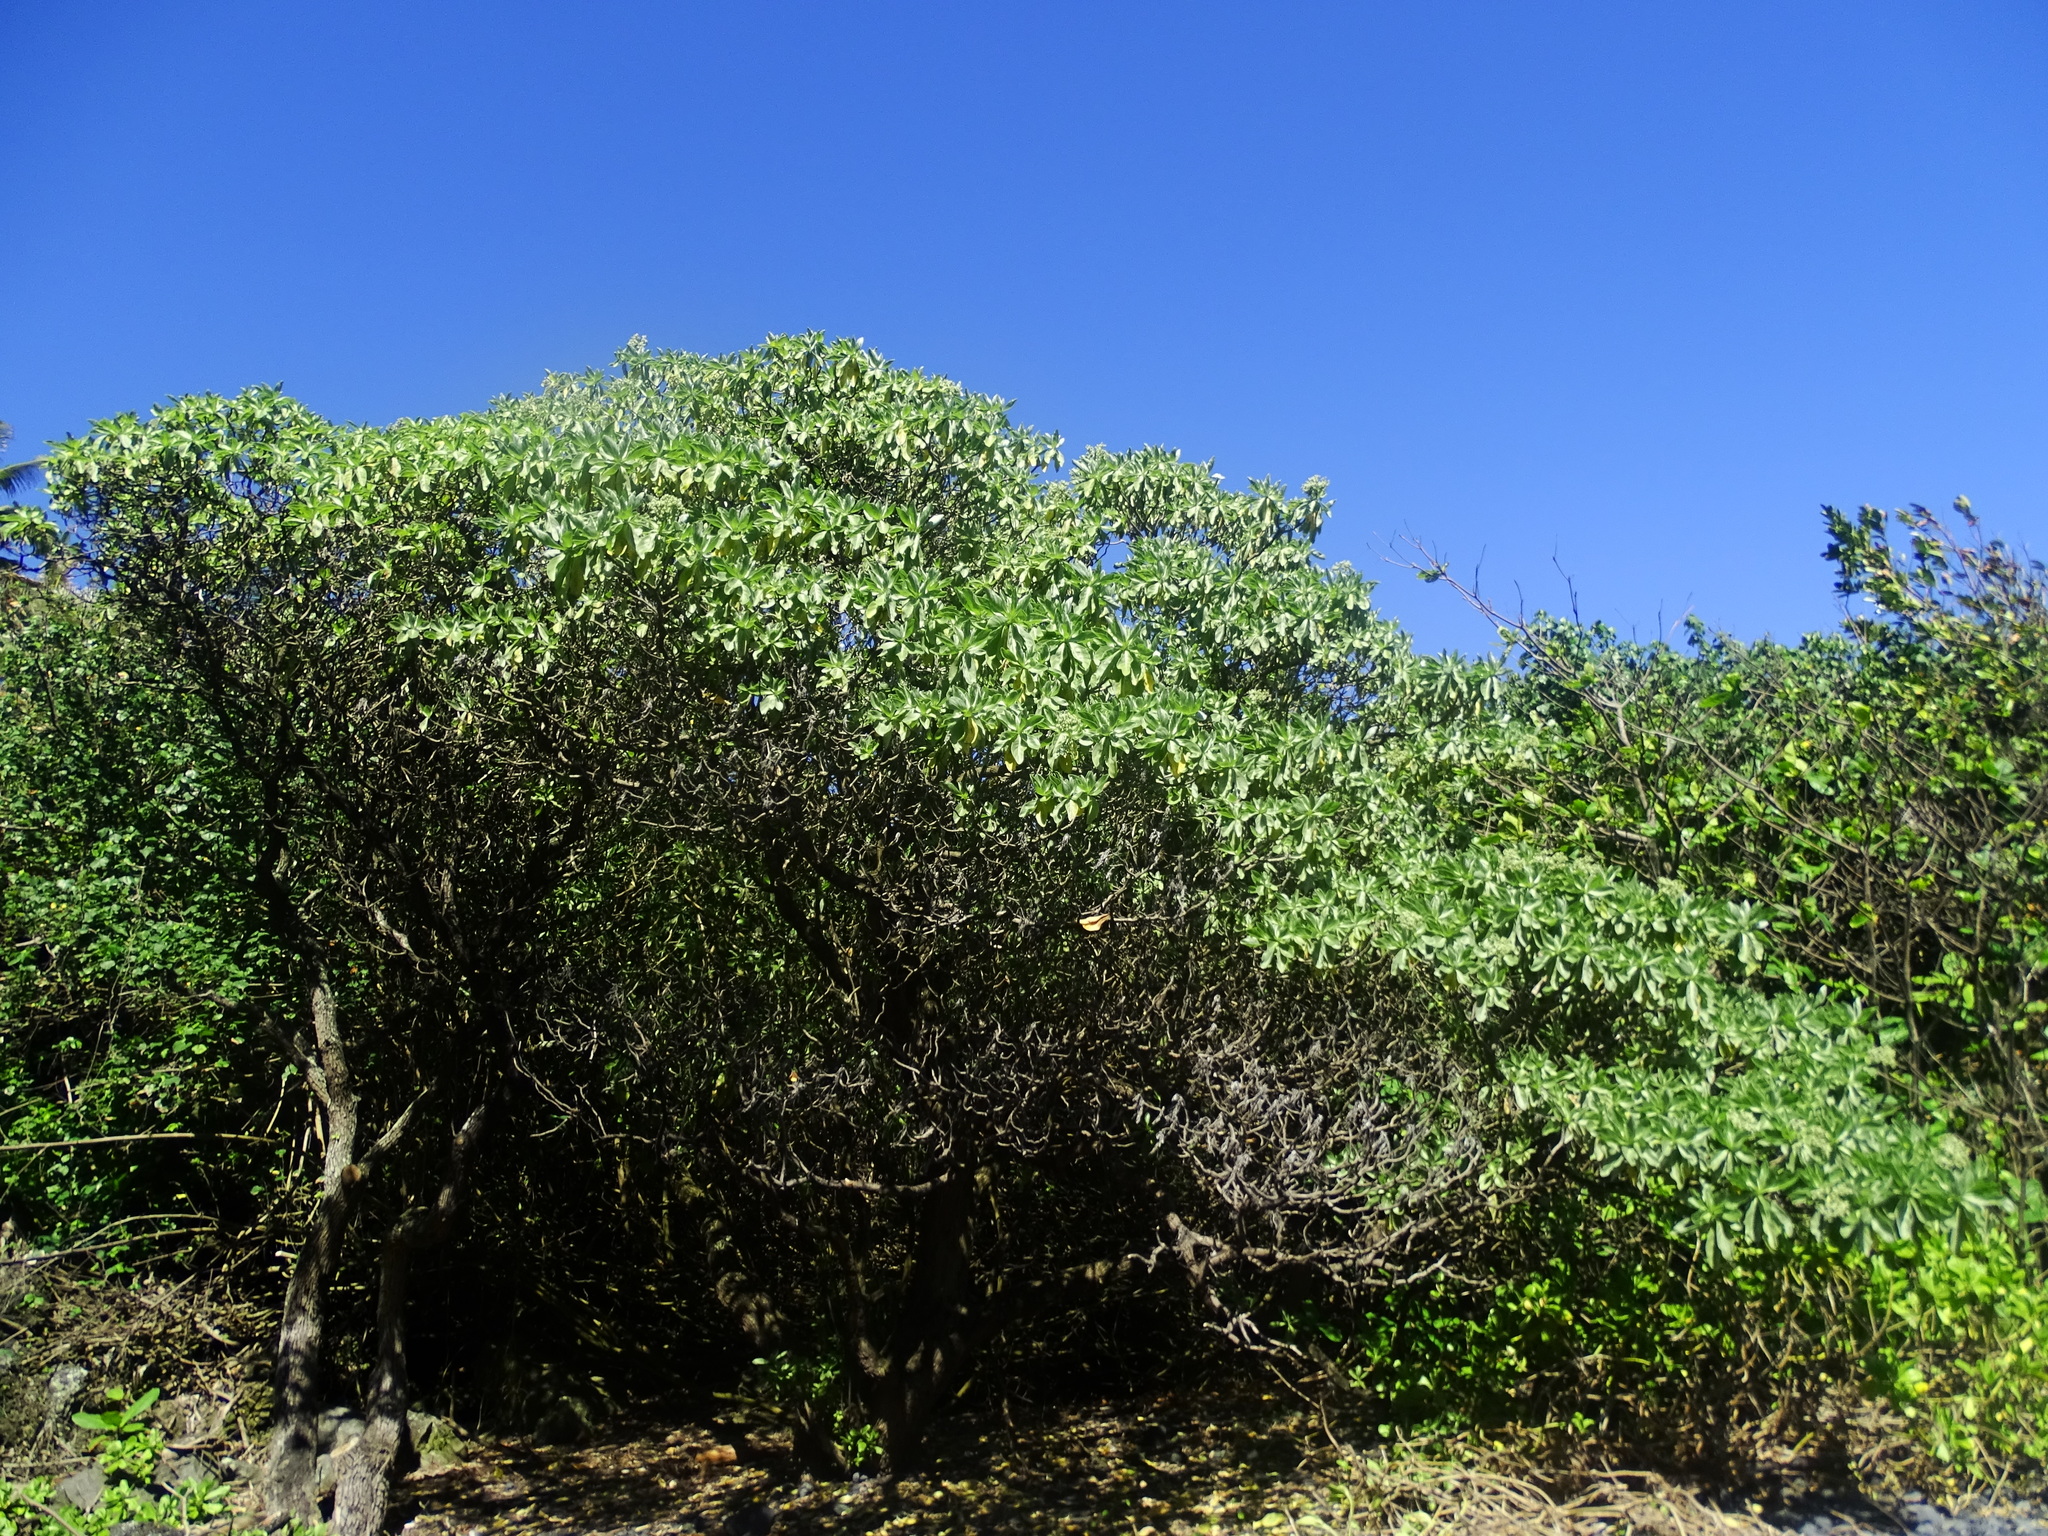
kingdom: Plantae
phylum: Tracheophyta
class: Magnoliopsida
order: Boraginales
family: Heliotropiaceae
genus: Heliotropium
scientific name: Heliotropium velutinum
